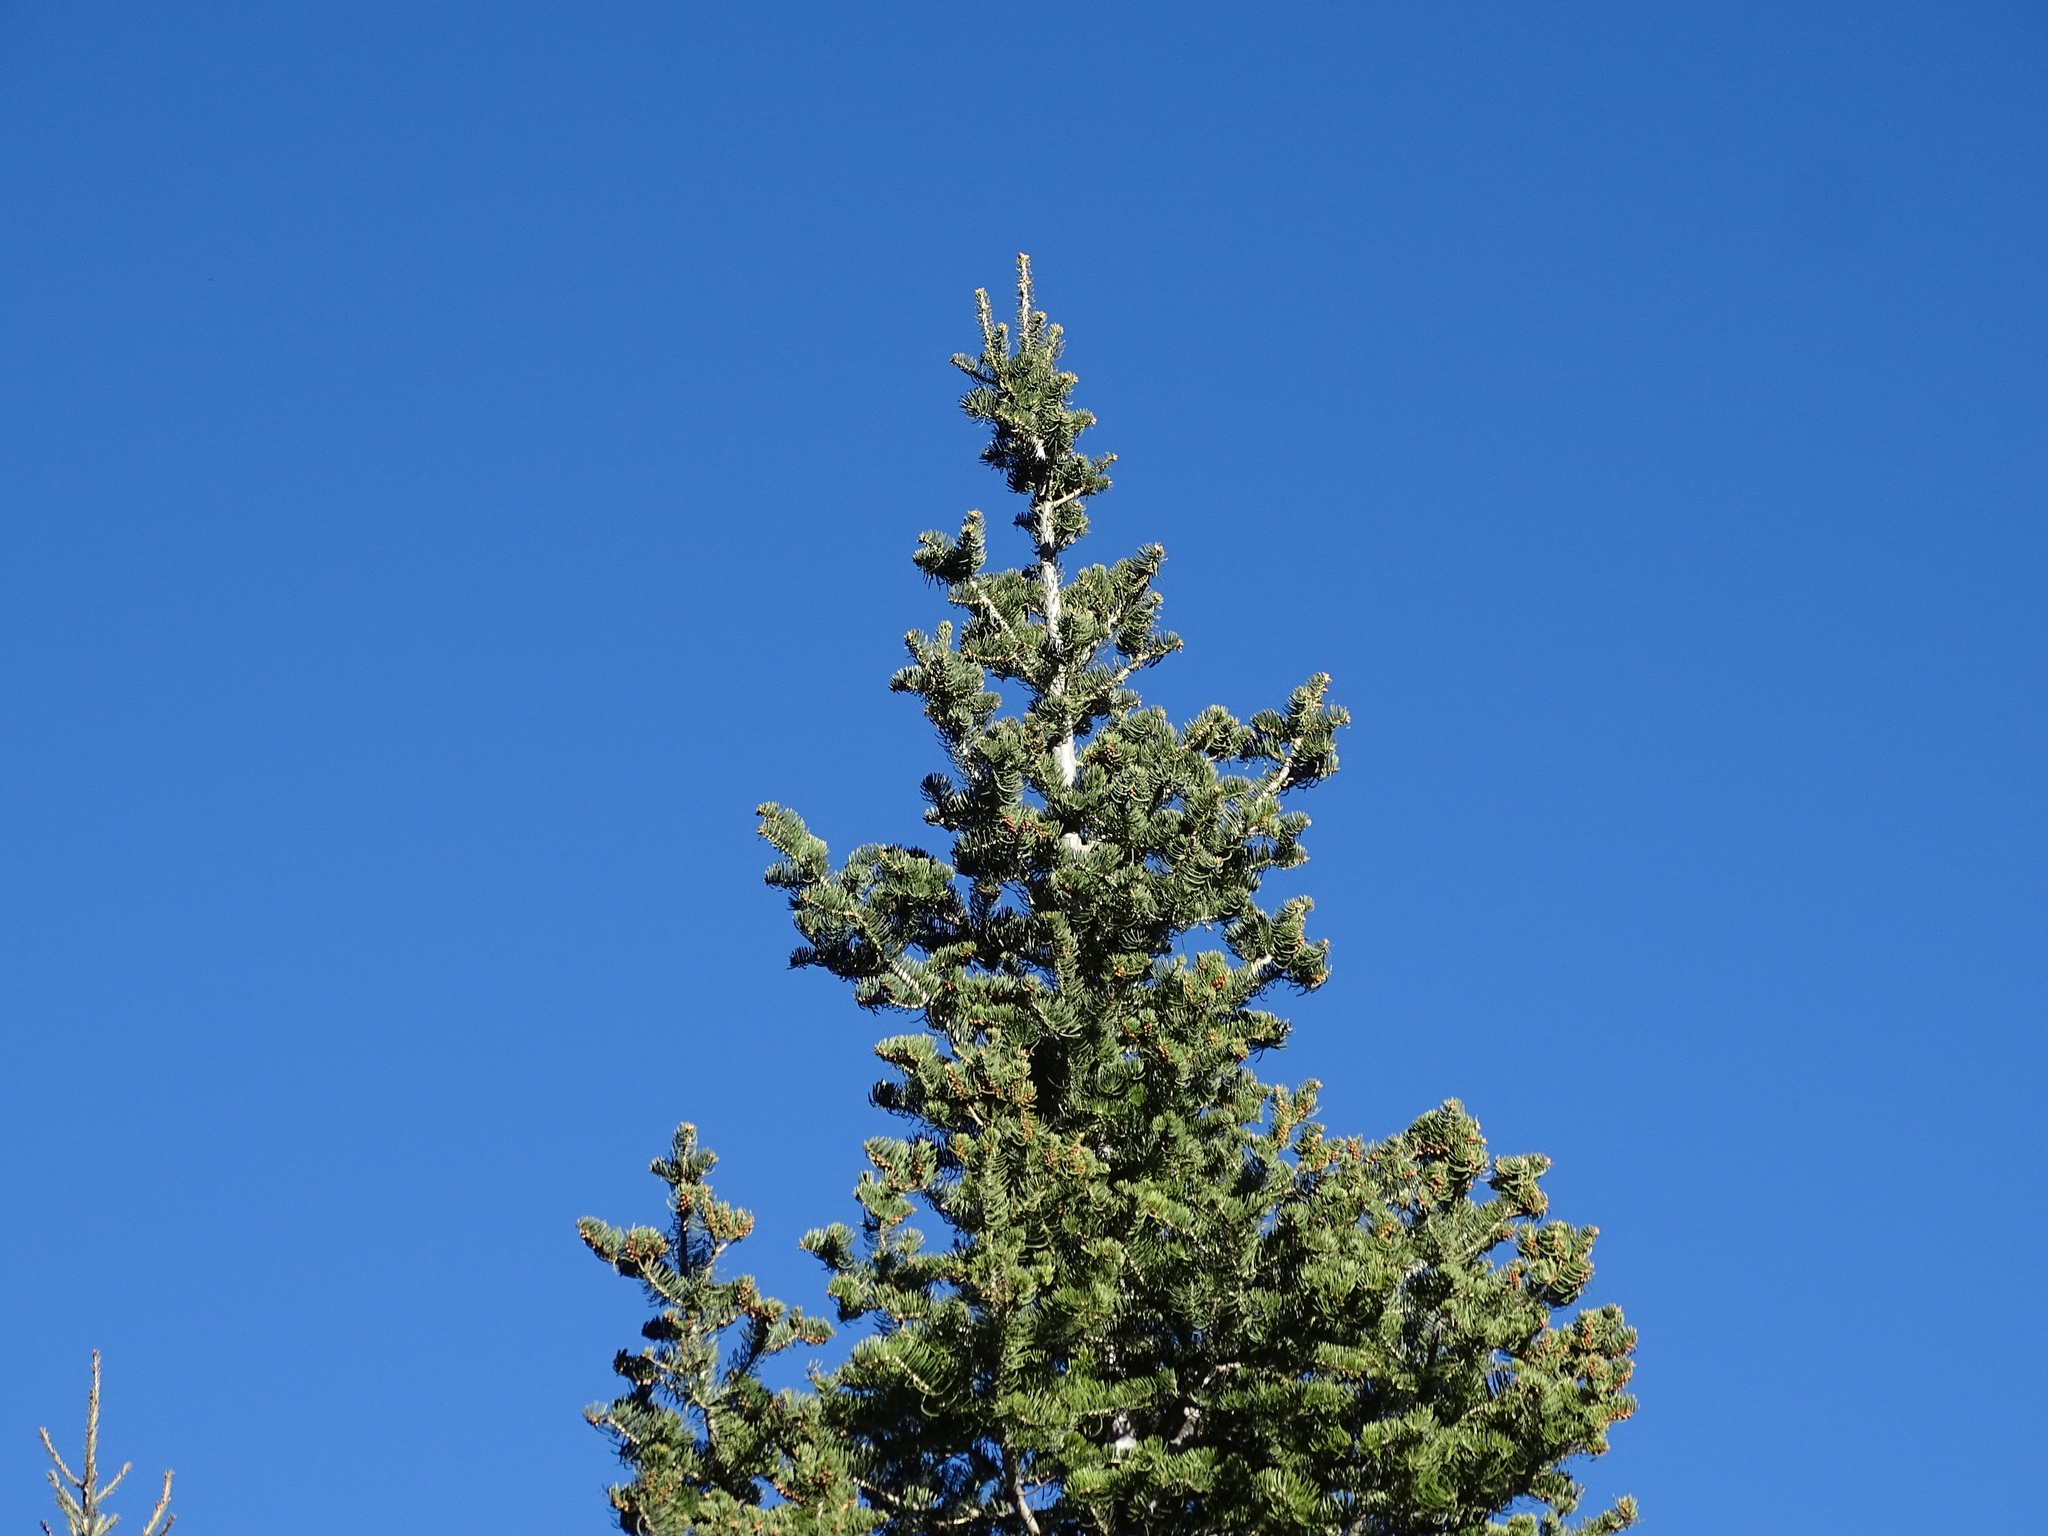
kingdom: Plantae
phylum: Tracheophyta
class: Pinopsida
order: Pinales
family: Pinaceae
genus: Abies
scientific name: Abies concolor
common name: Colorado fir
